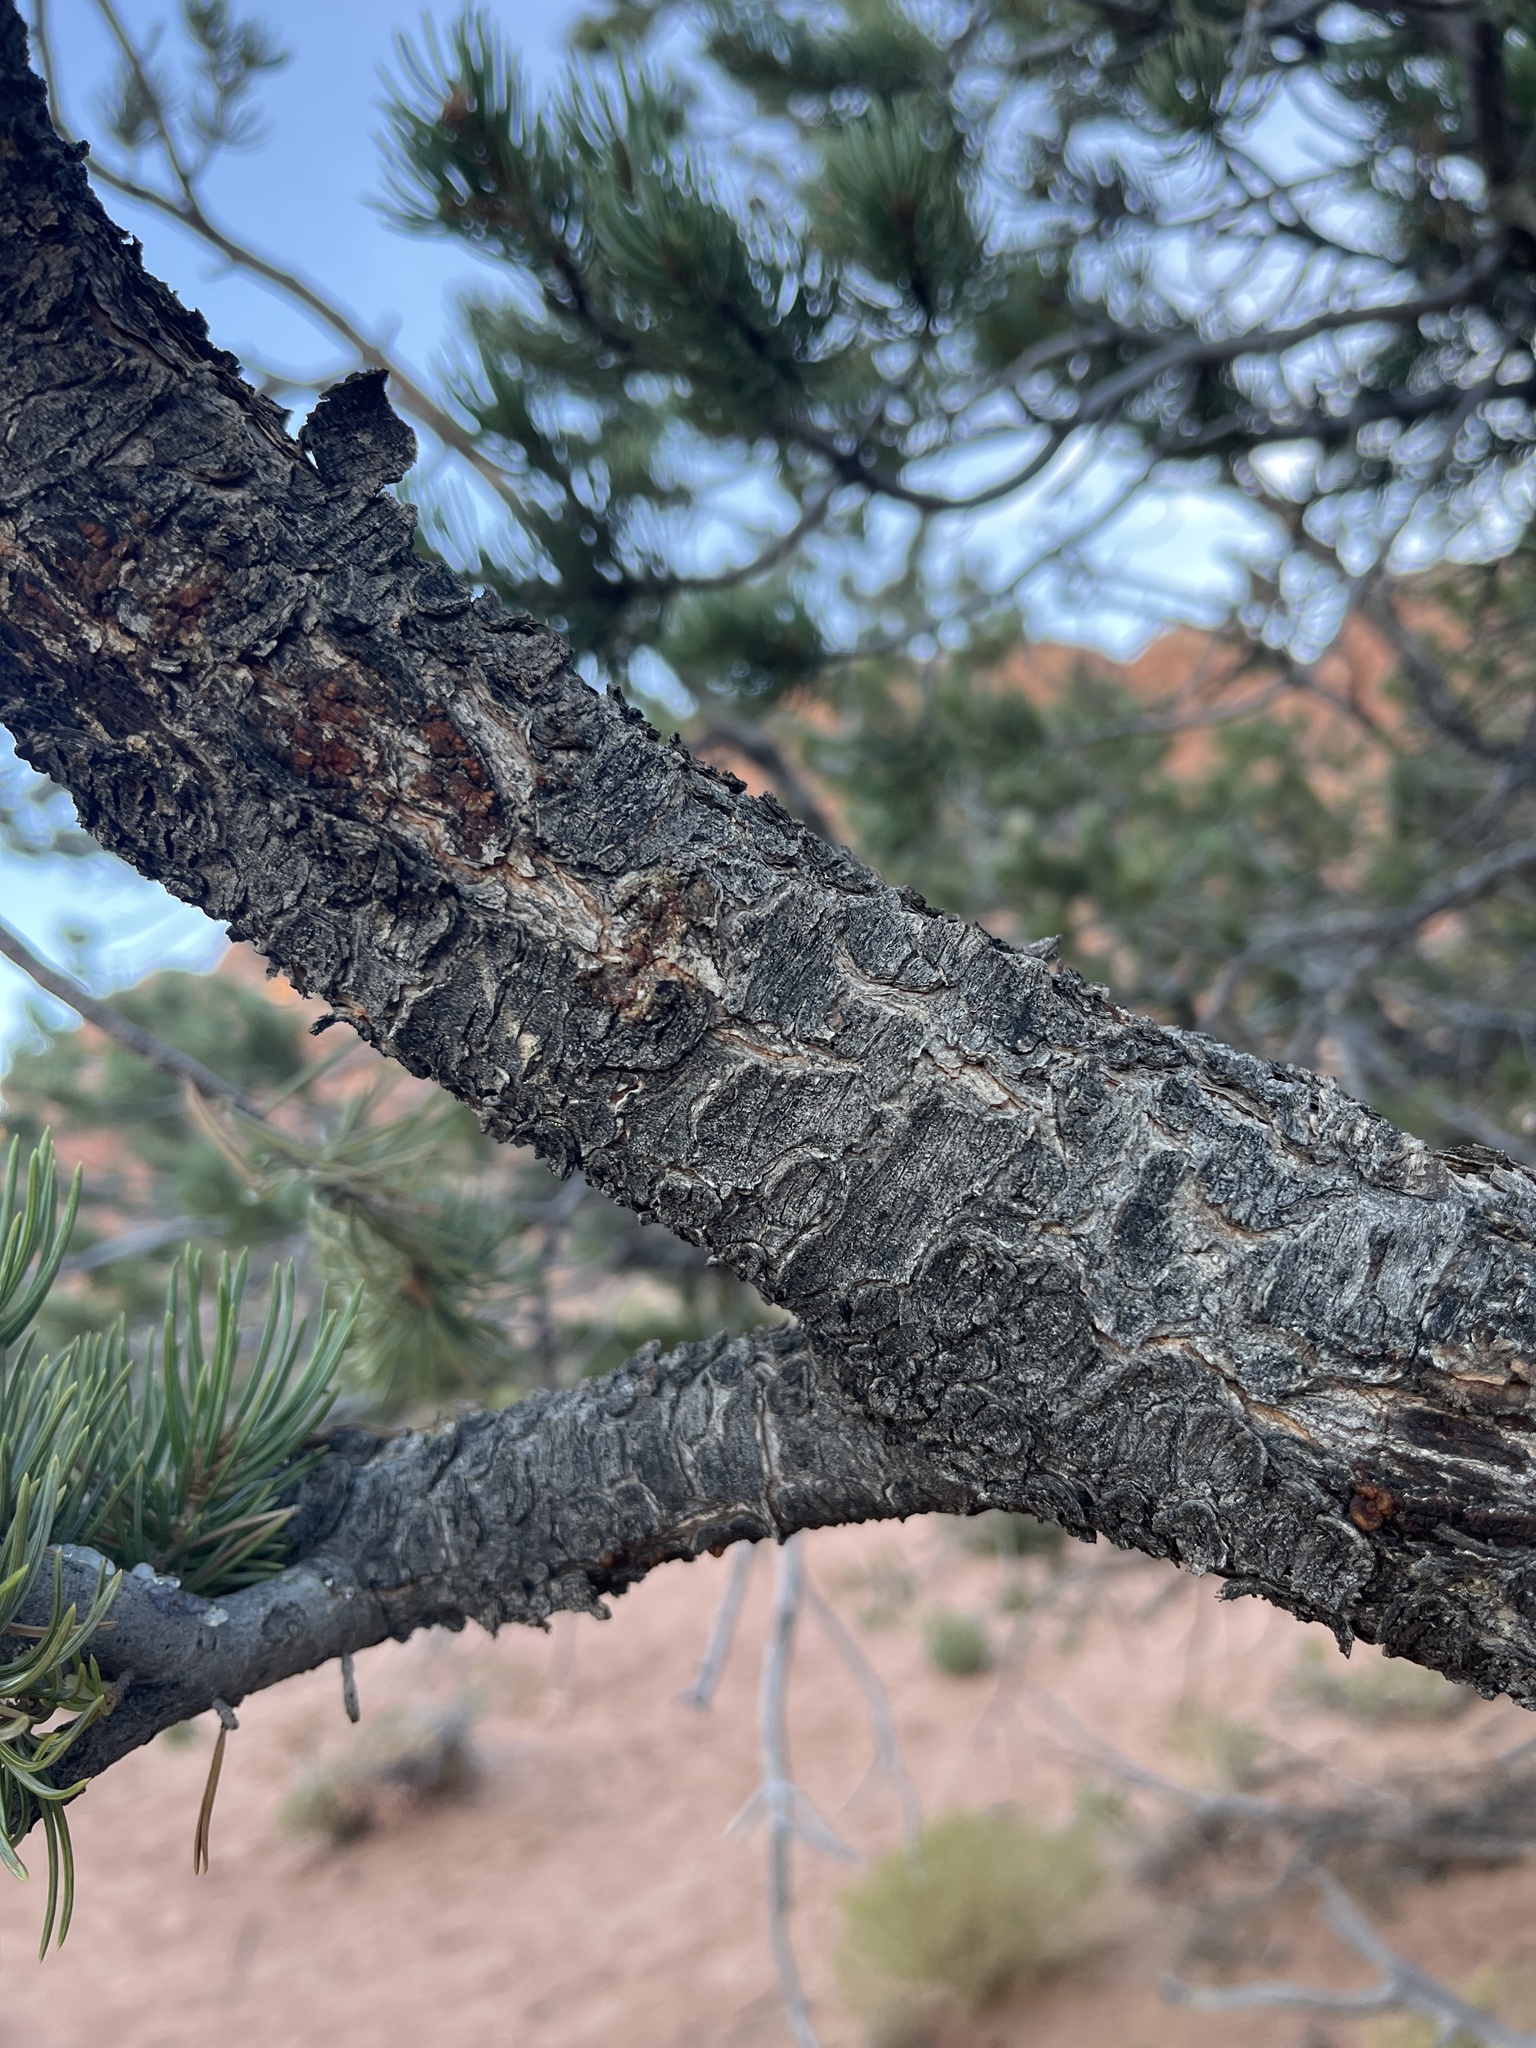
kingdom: Plantae
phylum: Tracheophyta
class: Pinopsida
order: Pinales
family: Pinaceae
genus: Pinus
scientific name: Pinus edulis
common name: Colorado pinyon
